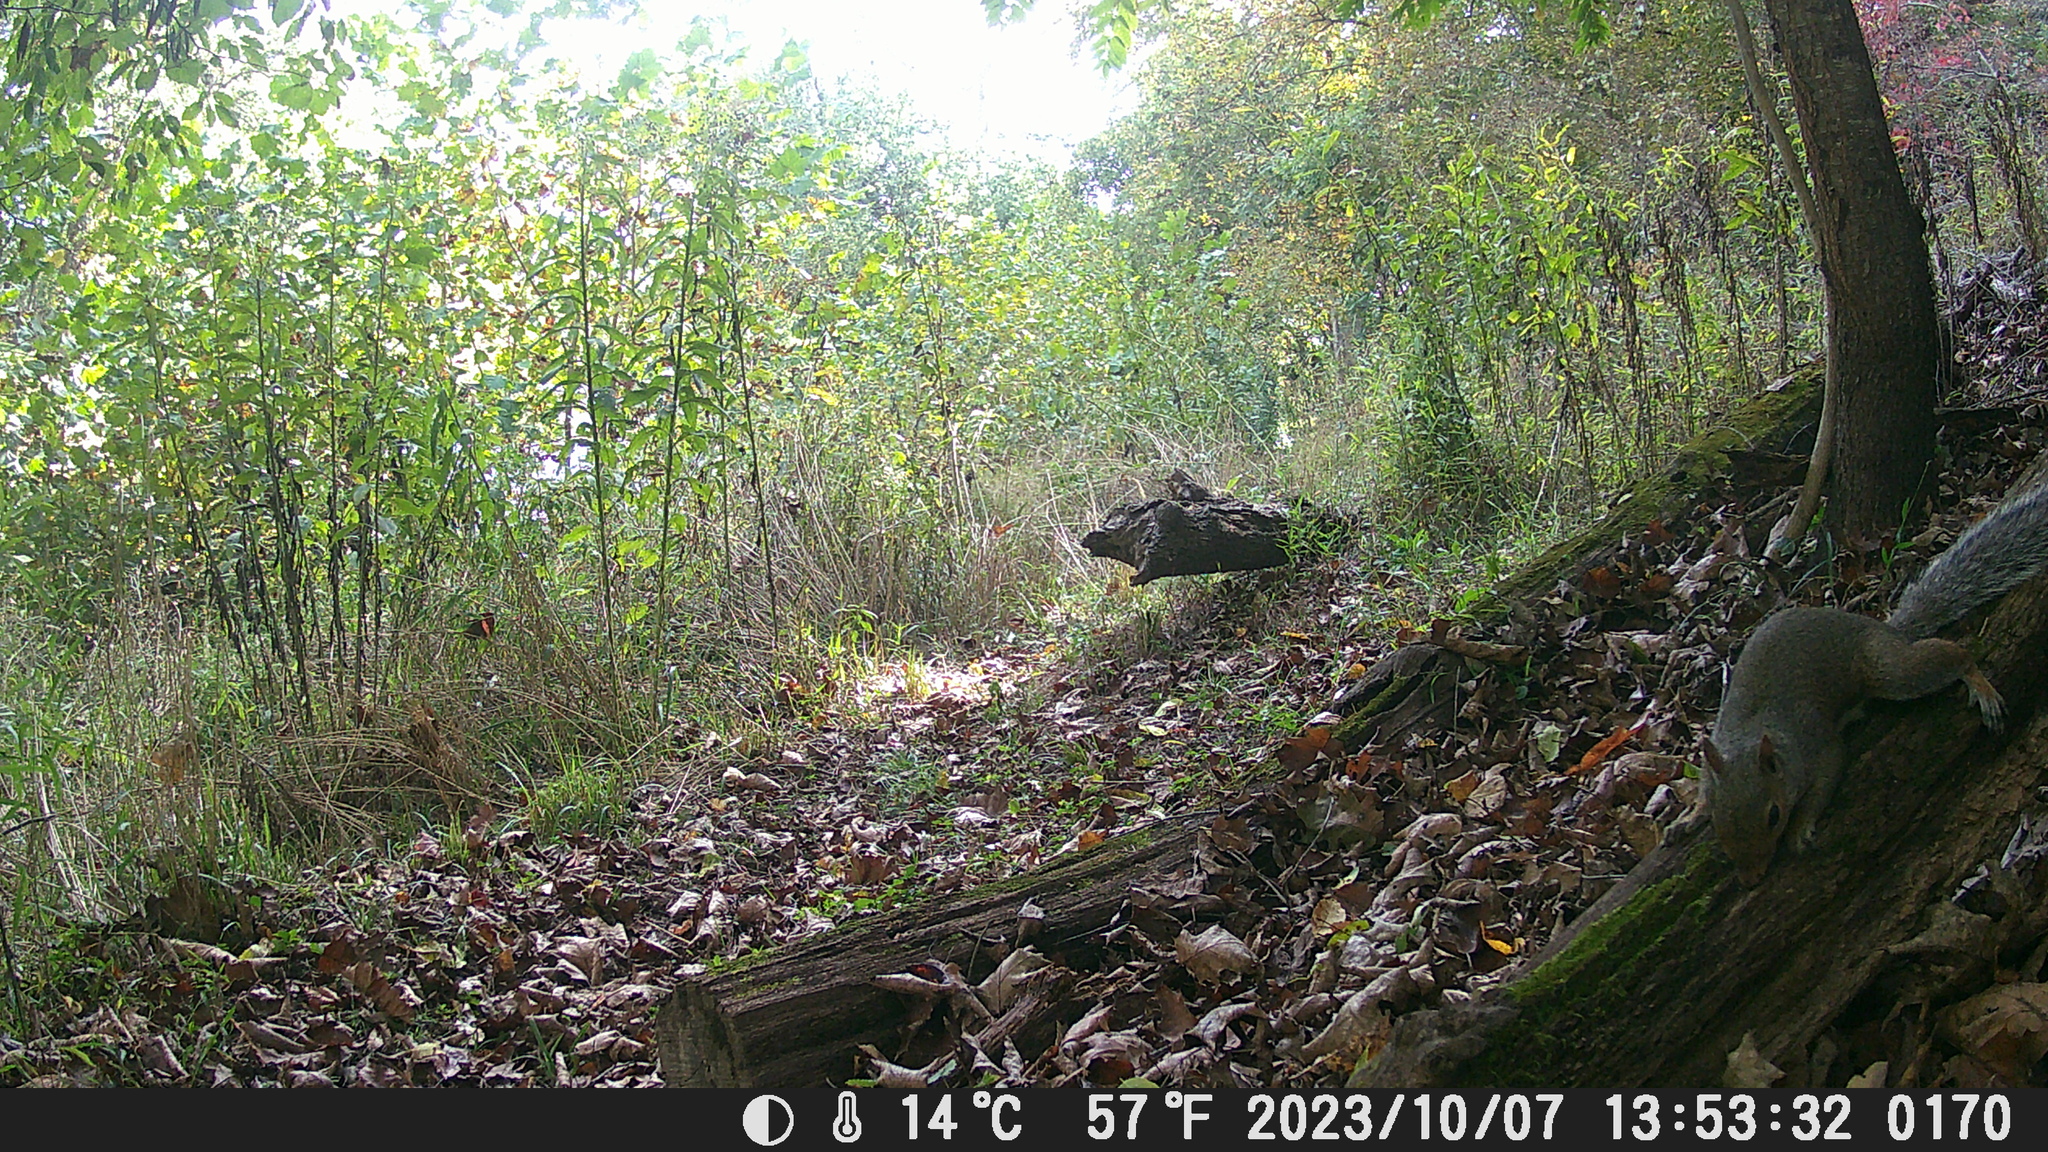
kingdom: Animalia
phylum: Chordata
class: Mammalia
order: Rodentia
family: Sciuridae
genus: Sciurus
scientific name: Sciurus carolinensis
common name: Eastern gray squirrel
